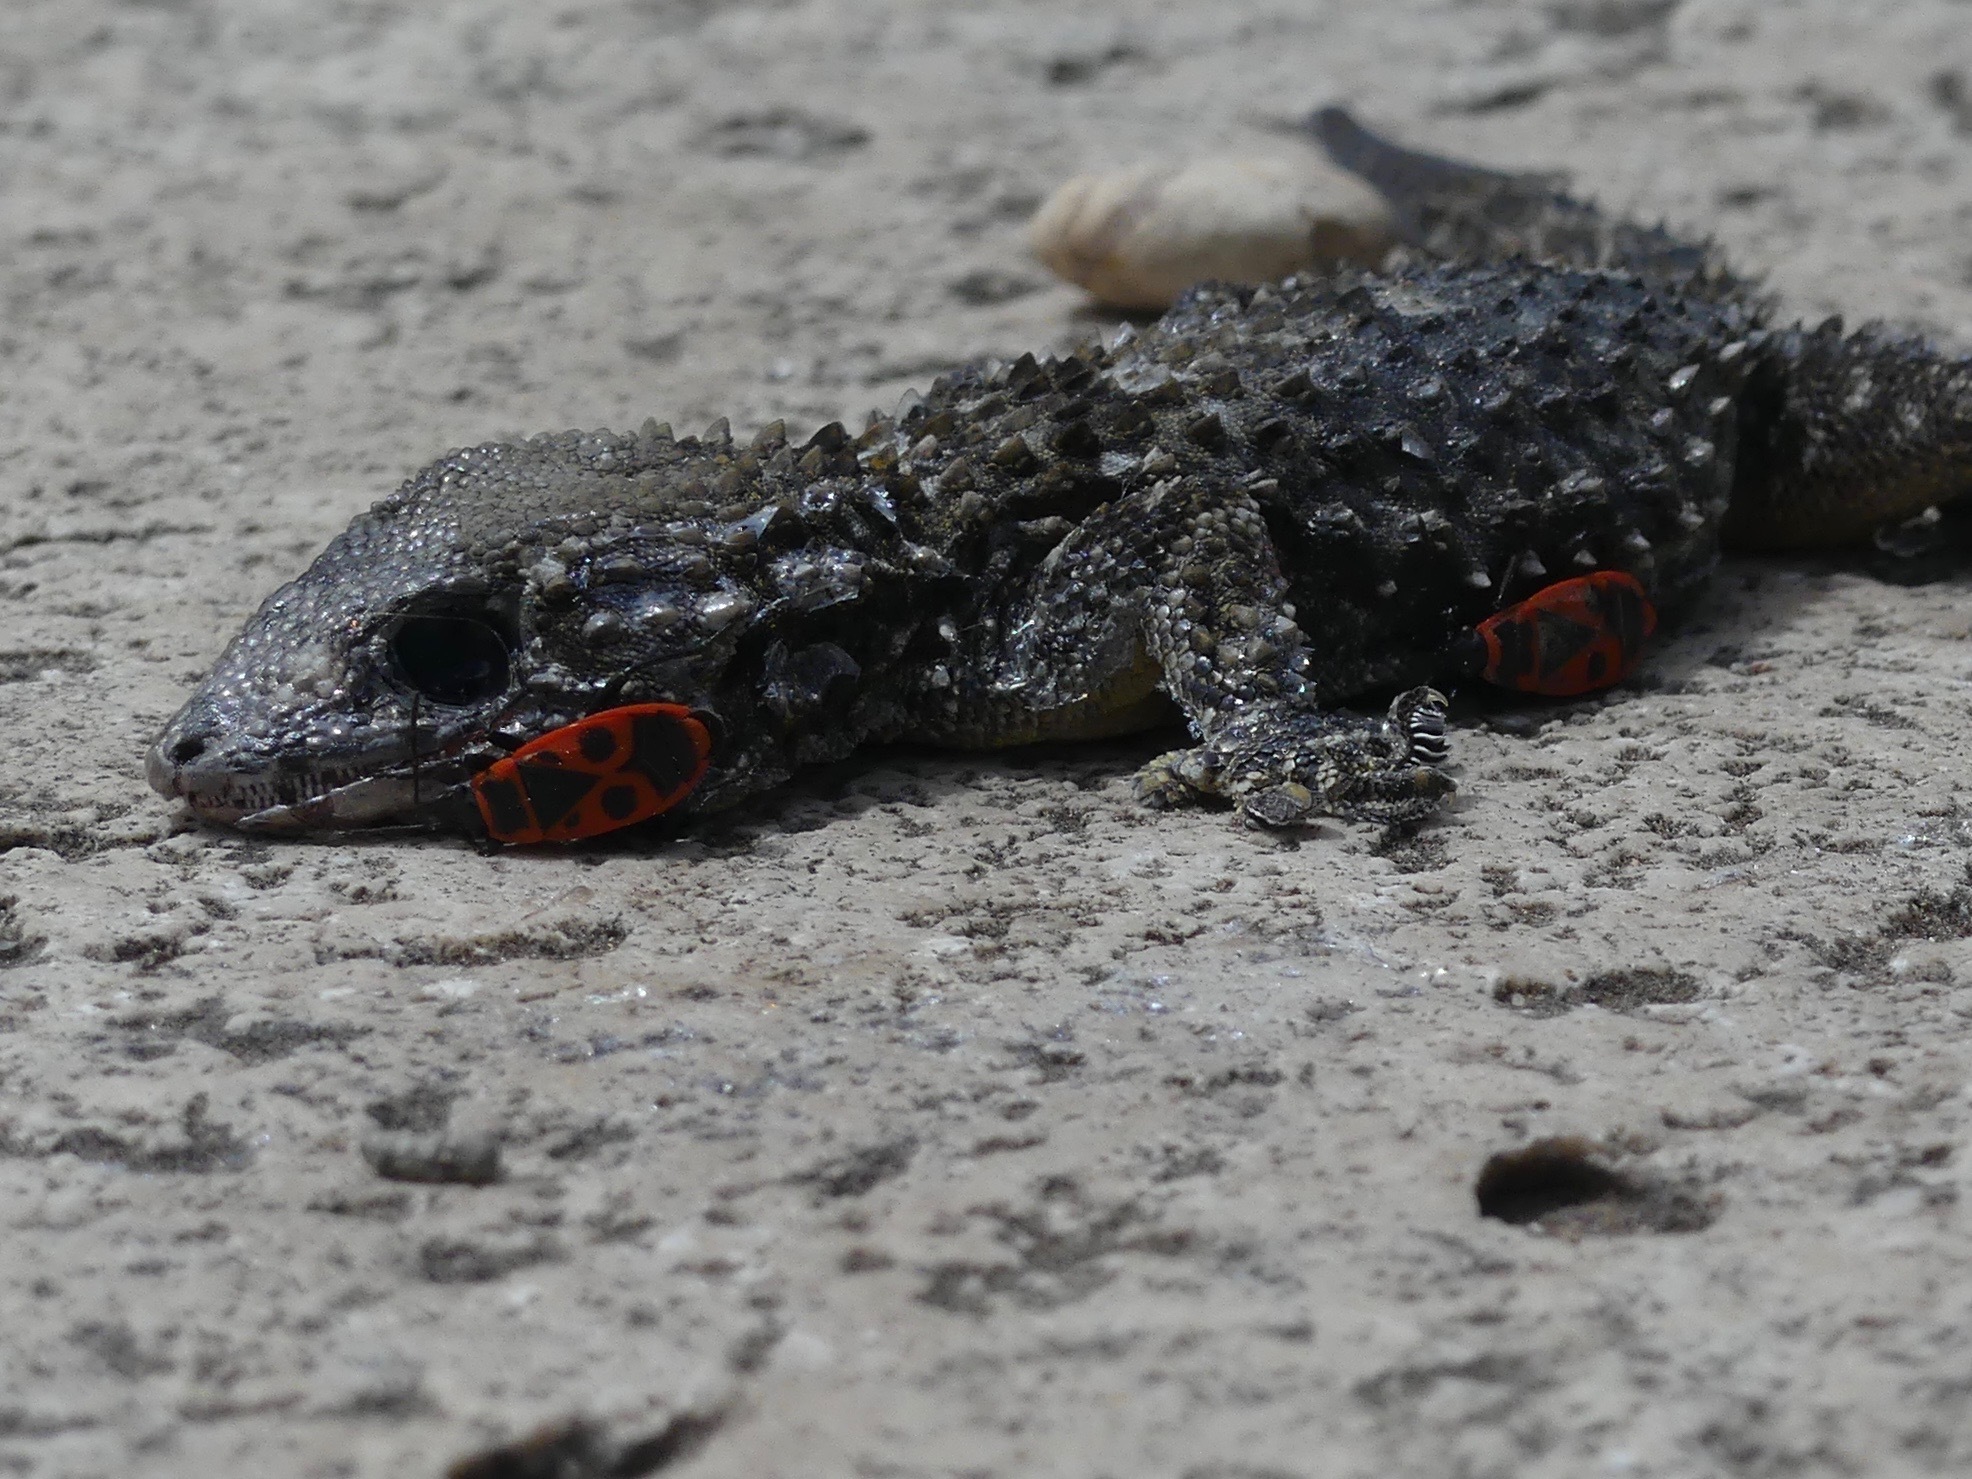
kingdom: Animalia
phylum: Arthropoda
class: Insecta
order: Hemiptera
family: Pyrrhocoridae
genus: Pyrrhocoris
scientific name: Pyrrhocoris apterus
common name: Firebug
